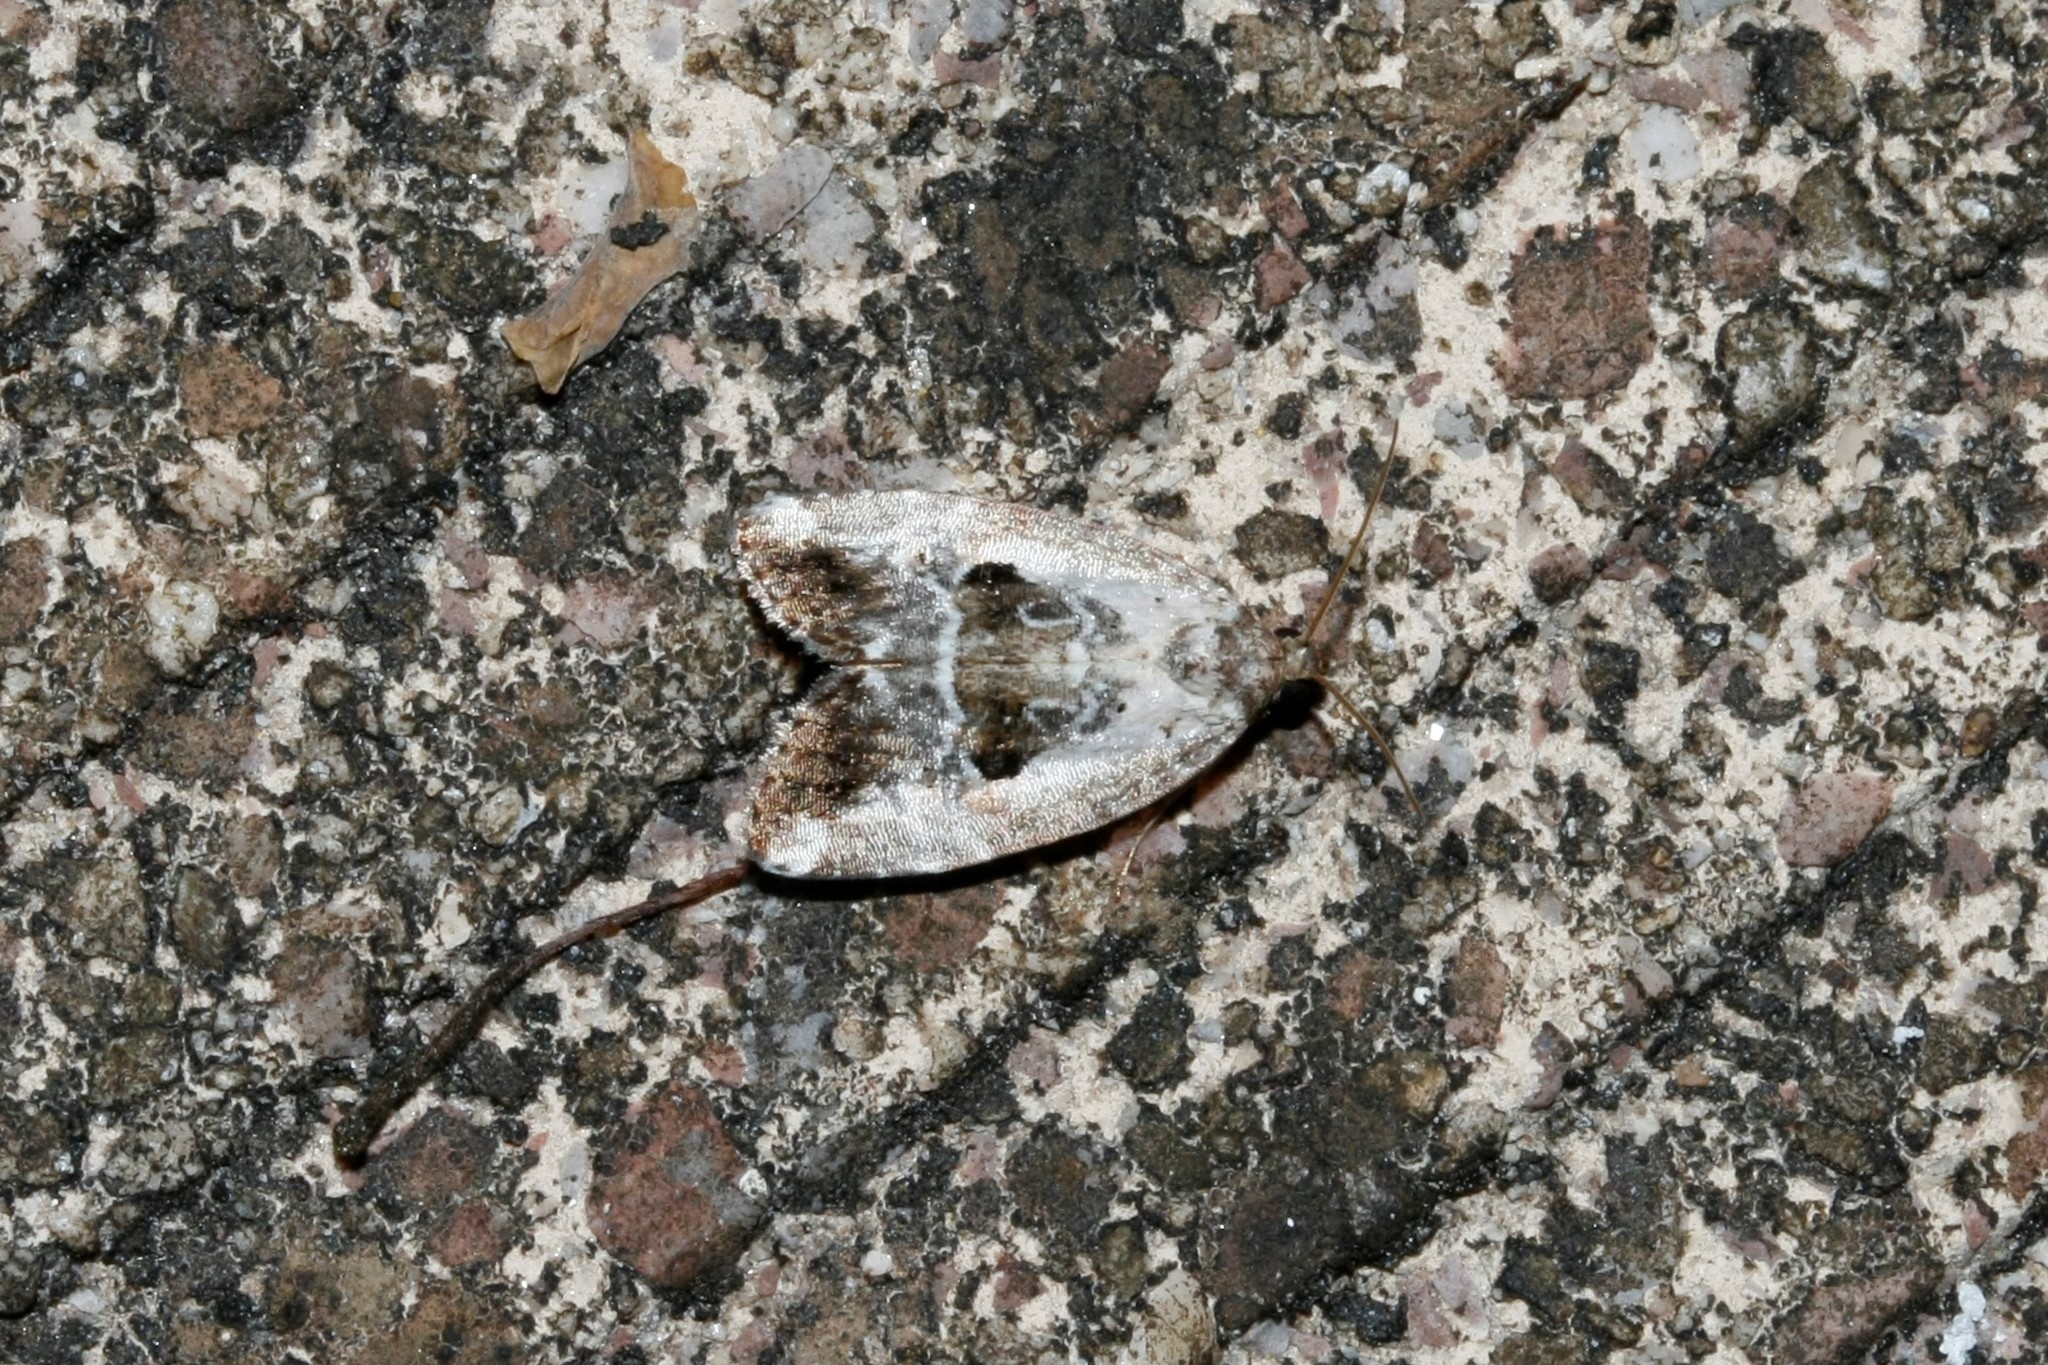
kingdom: Animalia
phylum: Arthropoda
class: Insecta
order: Lepidoptera
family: Noctuidae
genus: Elaphria
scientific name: Elaphria venustula
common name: Rosy marbled
